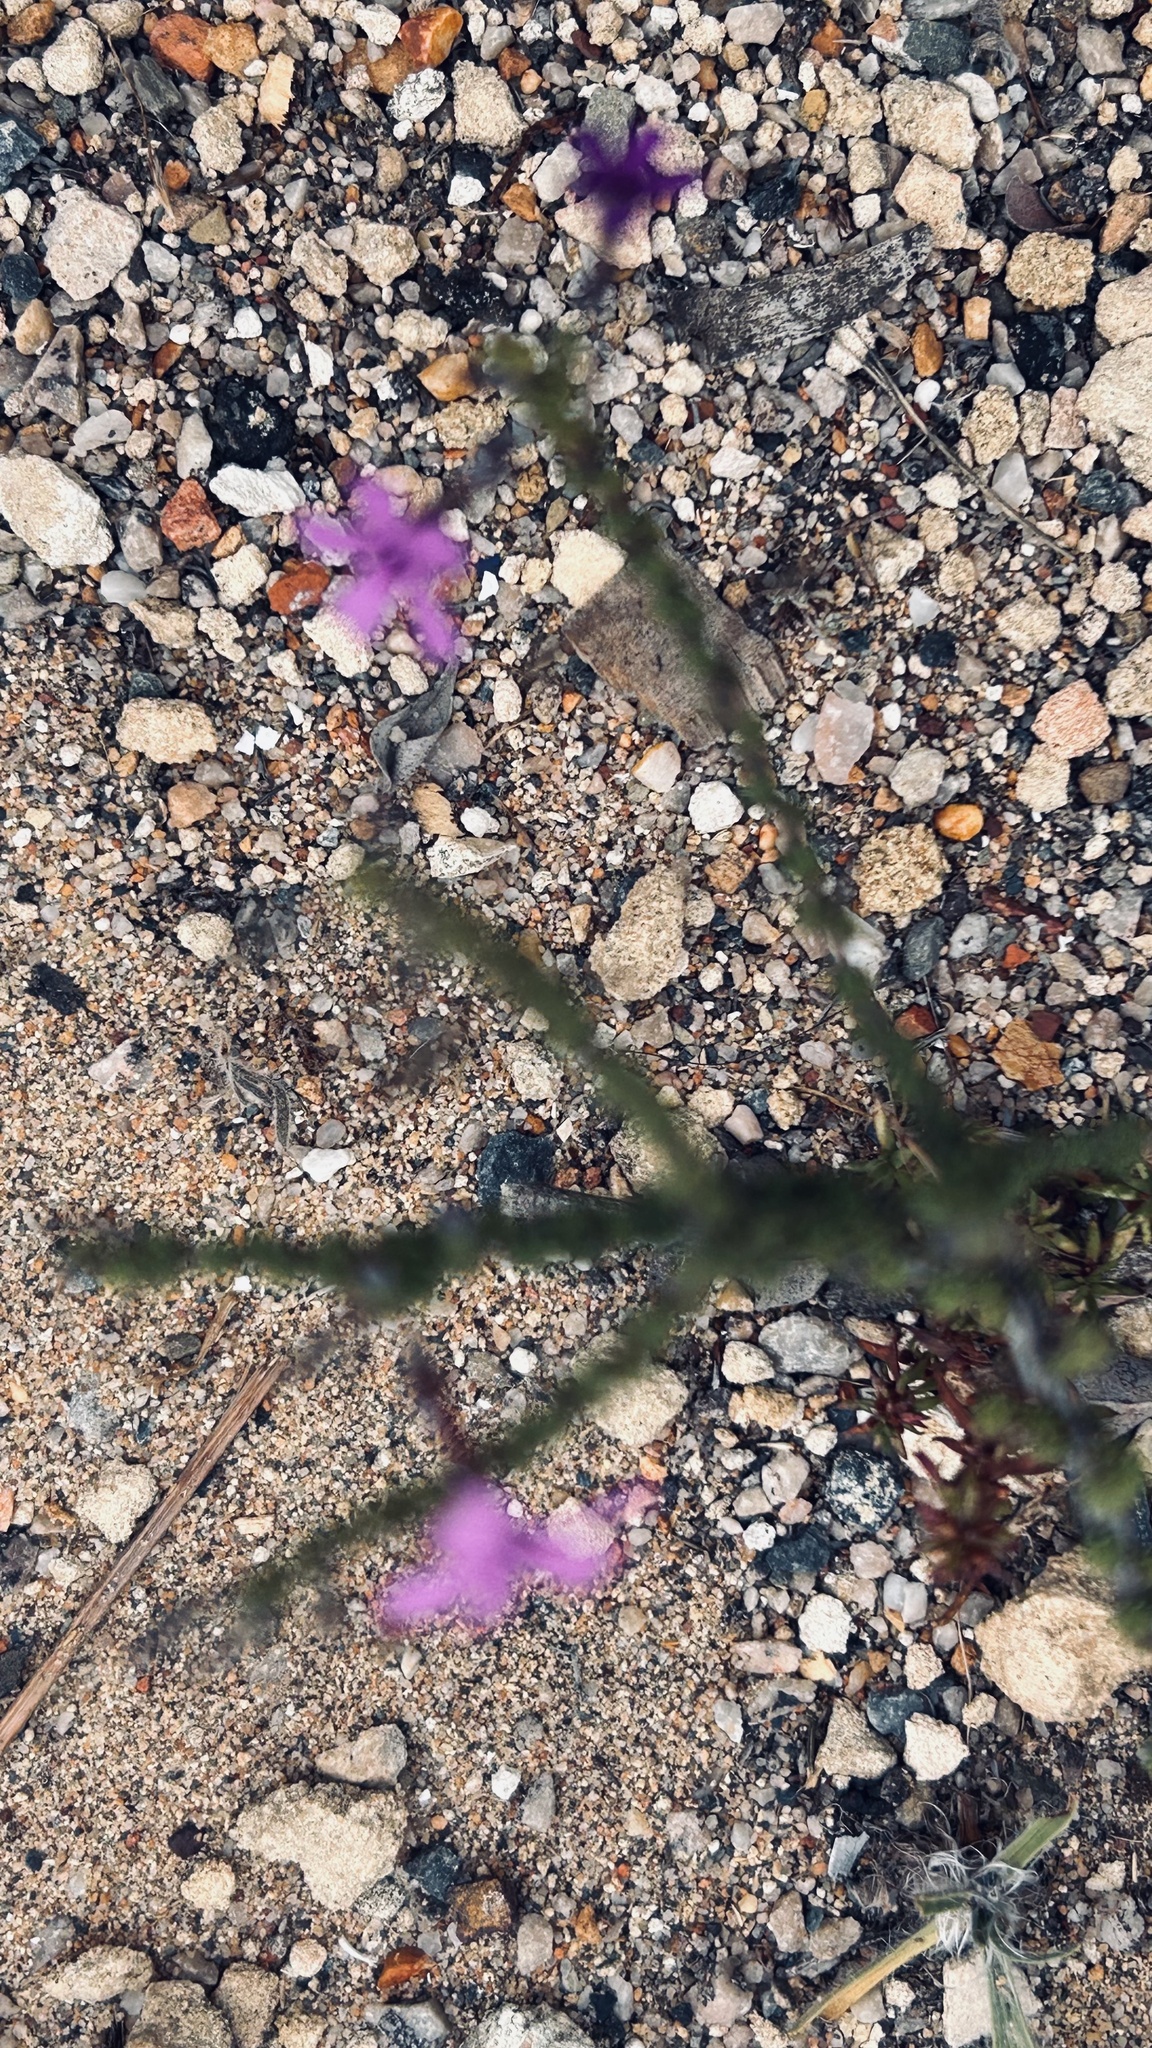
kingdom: Plantae
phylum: Tracheophyta
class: Magnoliopsida
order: Lamiales
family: Scrophulariaceae
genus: Jamesbrittenia
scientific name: Jamesbrittenia calciphila
